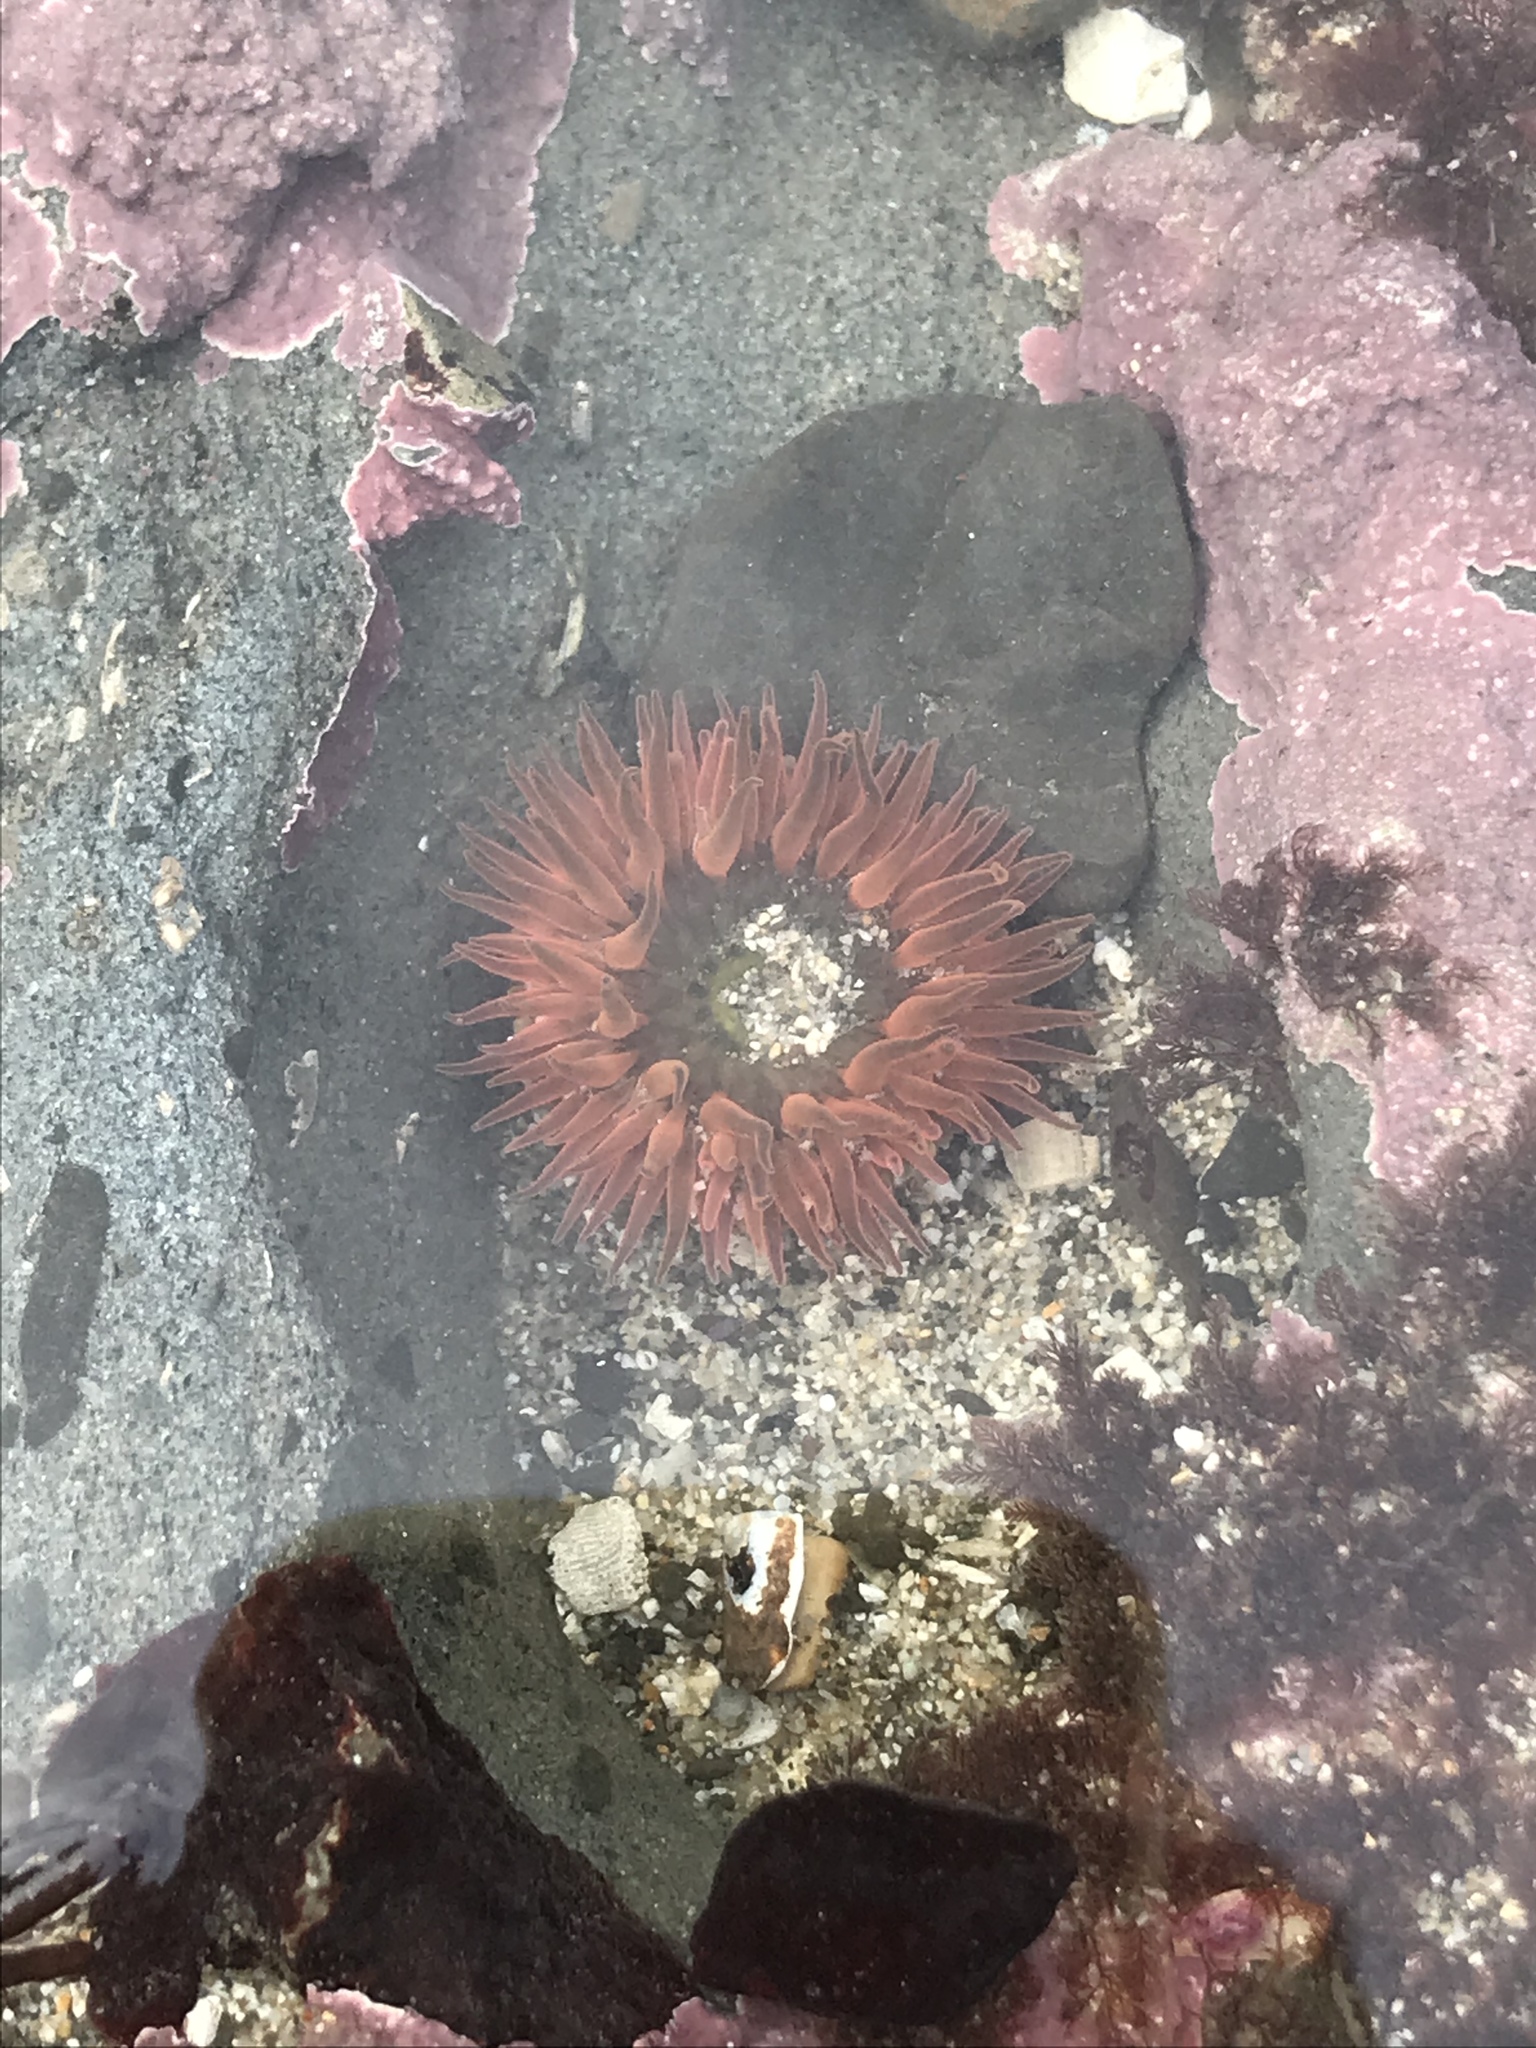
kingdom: Animalia
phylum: Cnidaria
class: Anthozoa
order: Actiniaria
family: Actiniidae
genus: Anthopleura
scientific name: Anthopleura artemisia
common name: Buried sea anemone
